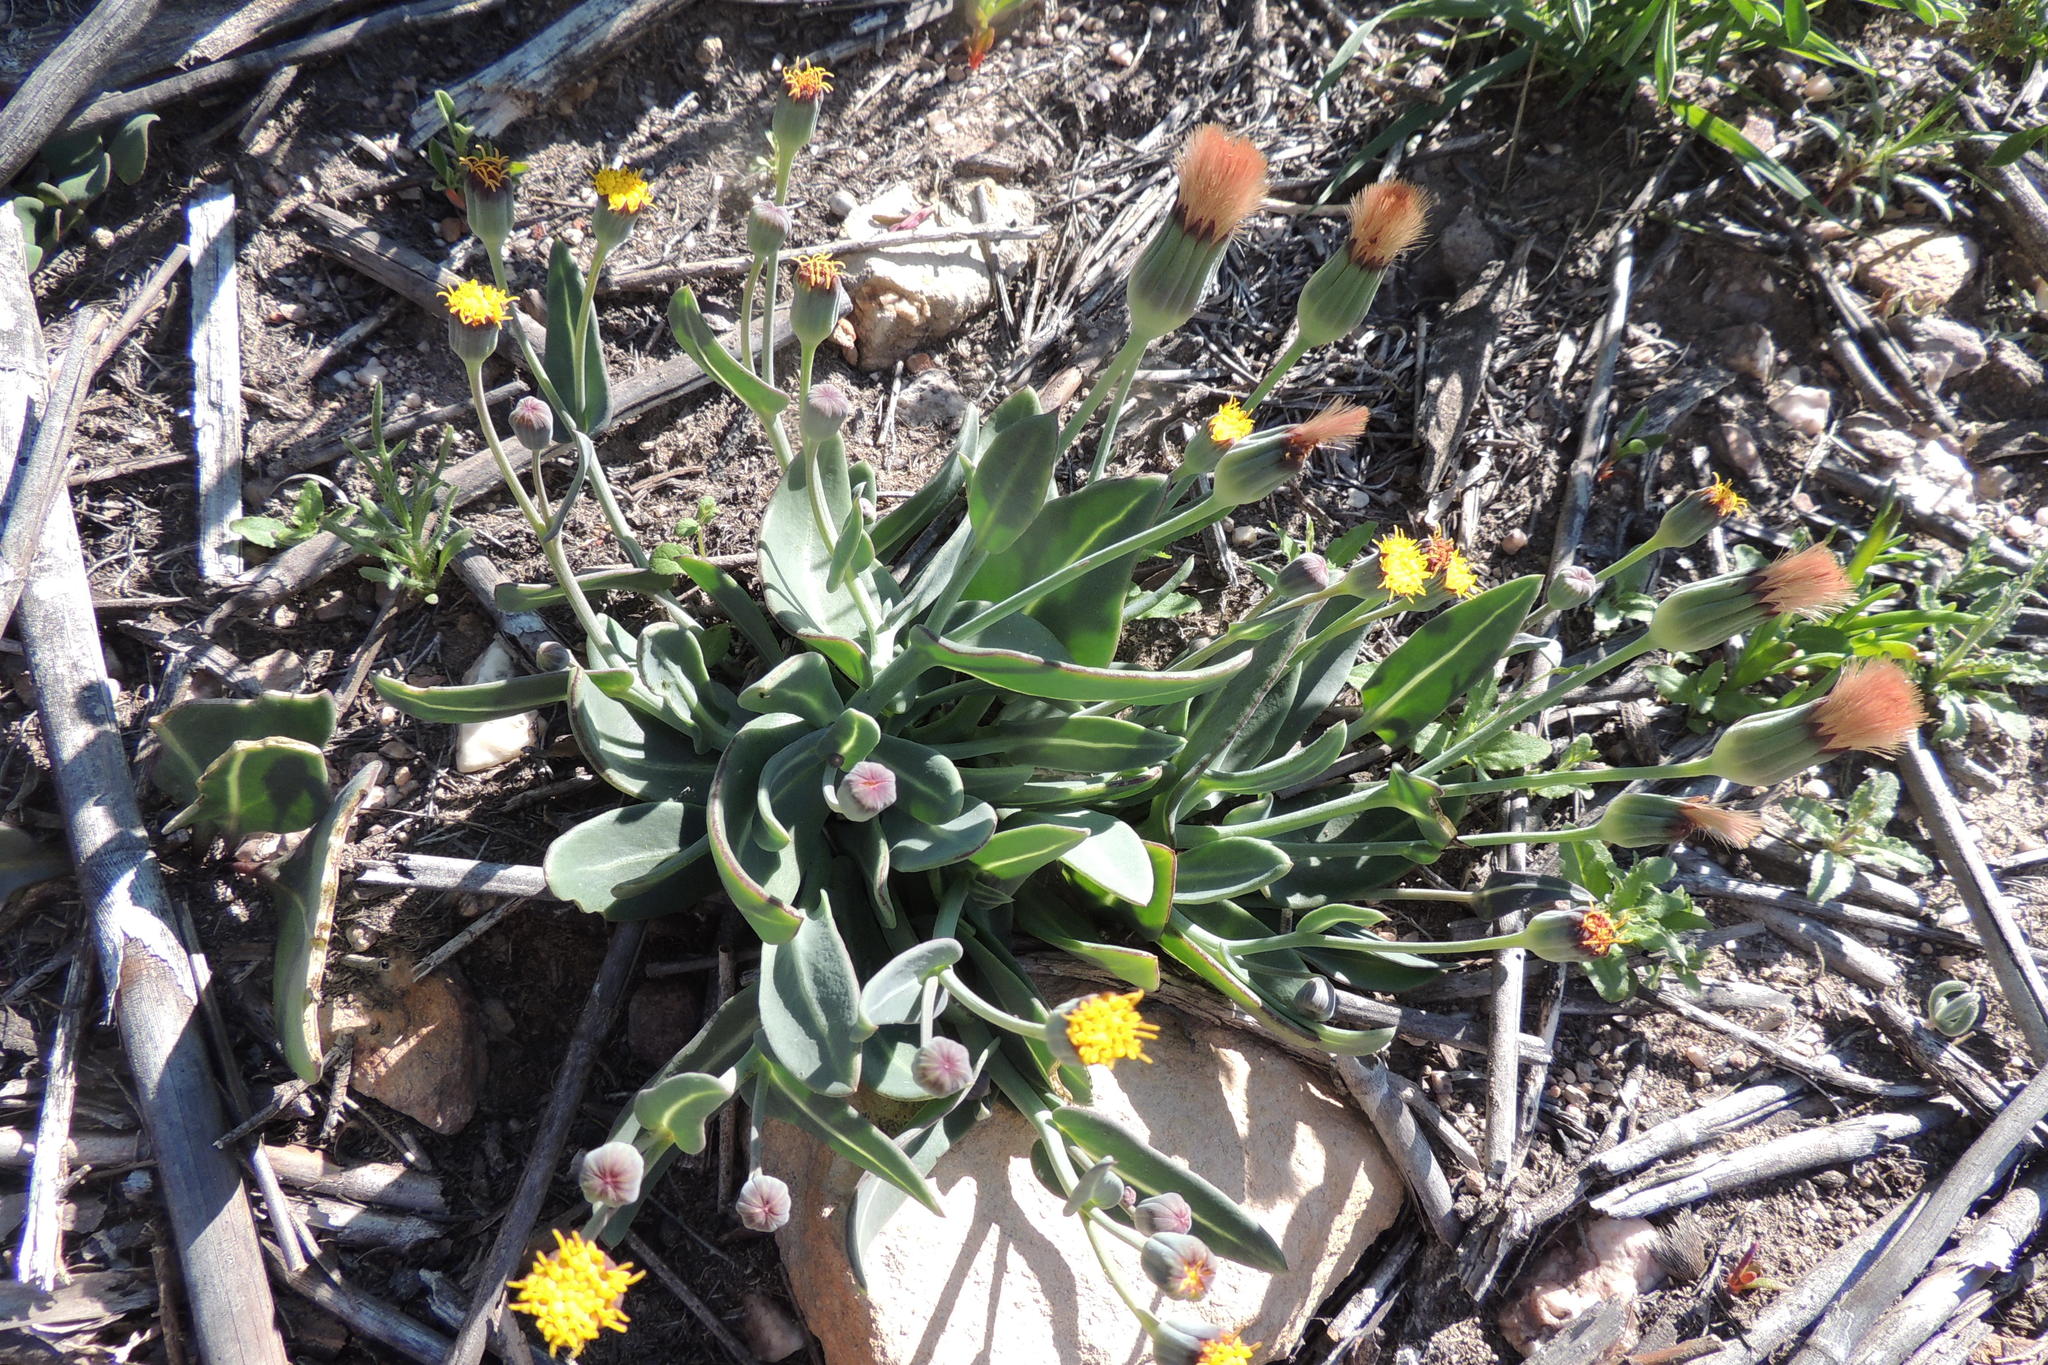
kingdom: Plantae
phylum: Tracheophyta
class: Magnoliopsida
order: Asterales
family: Asteraceae
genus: Othonna
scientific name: Othonna gymnodiscus
